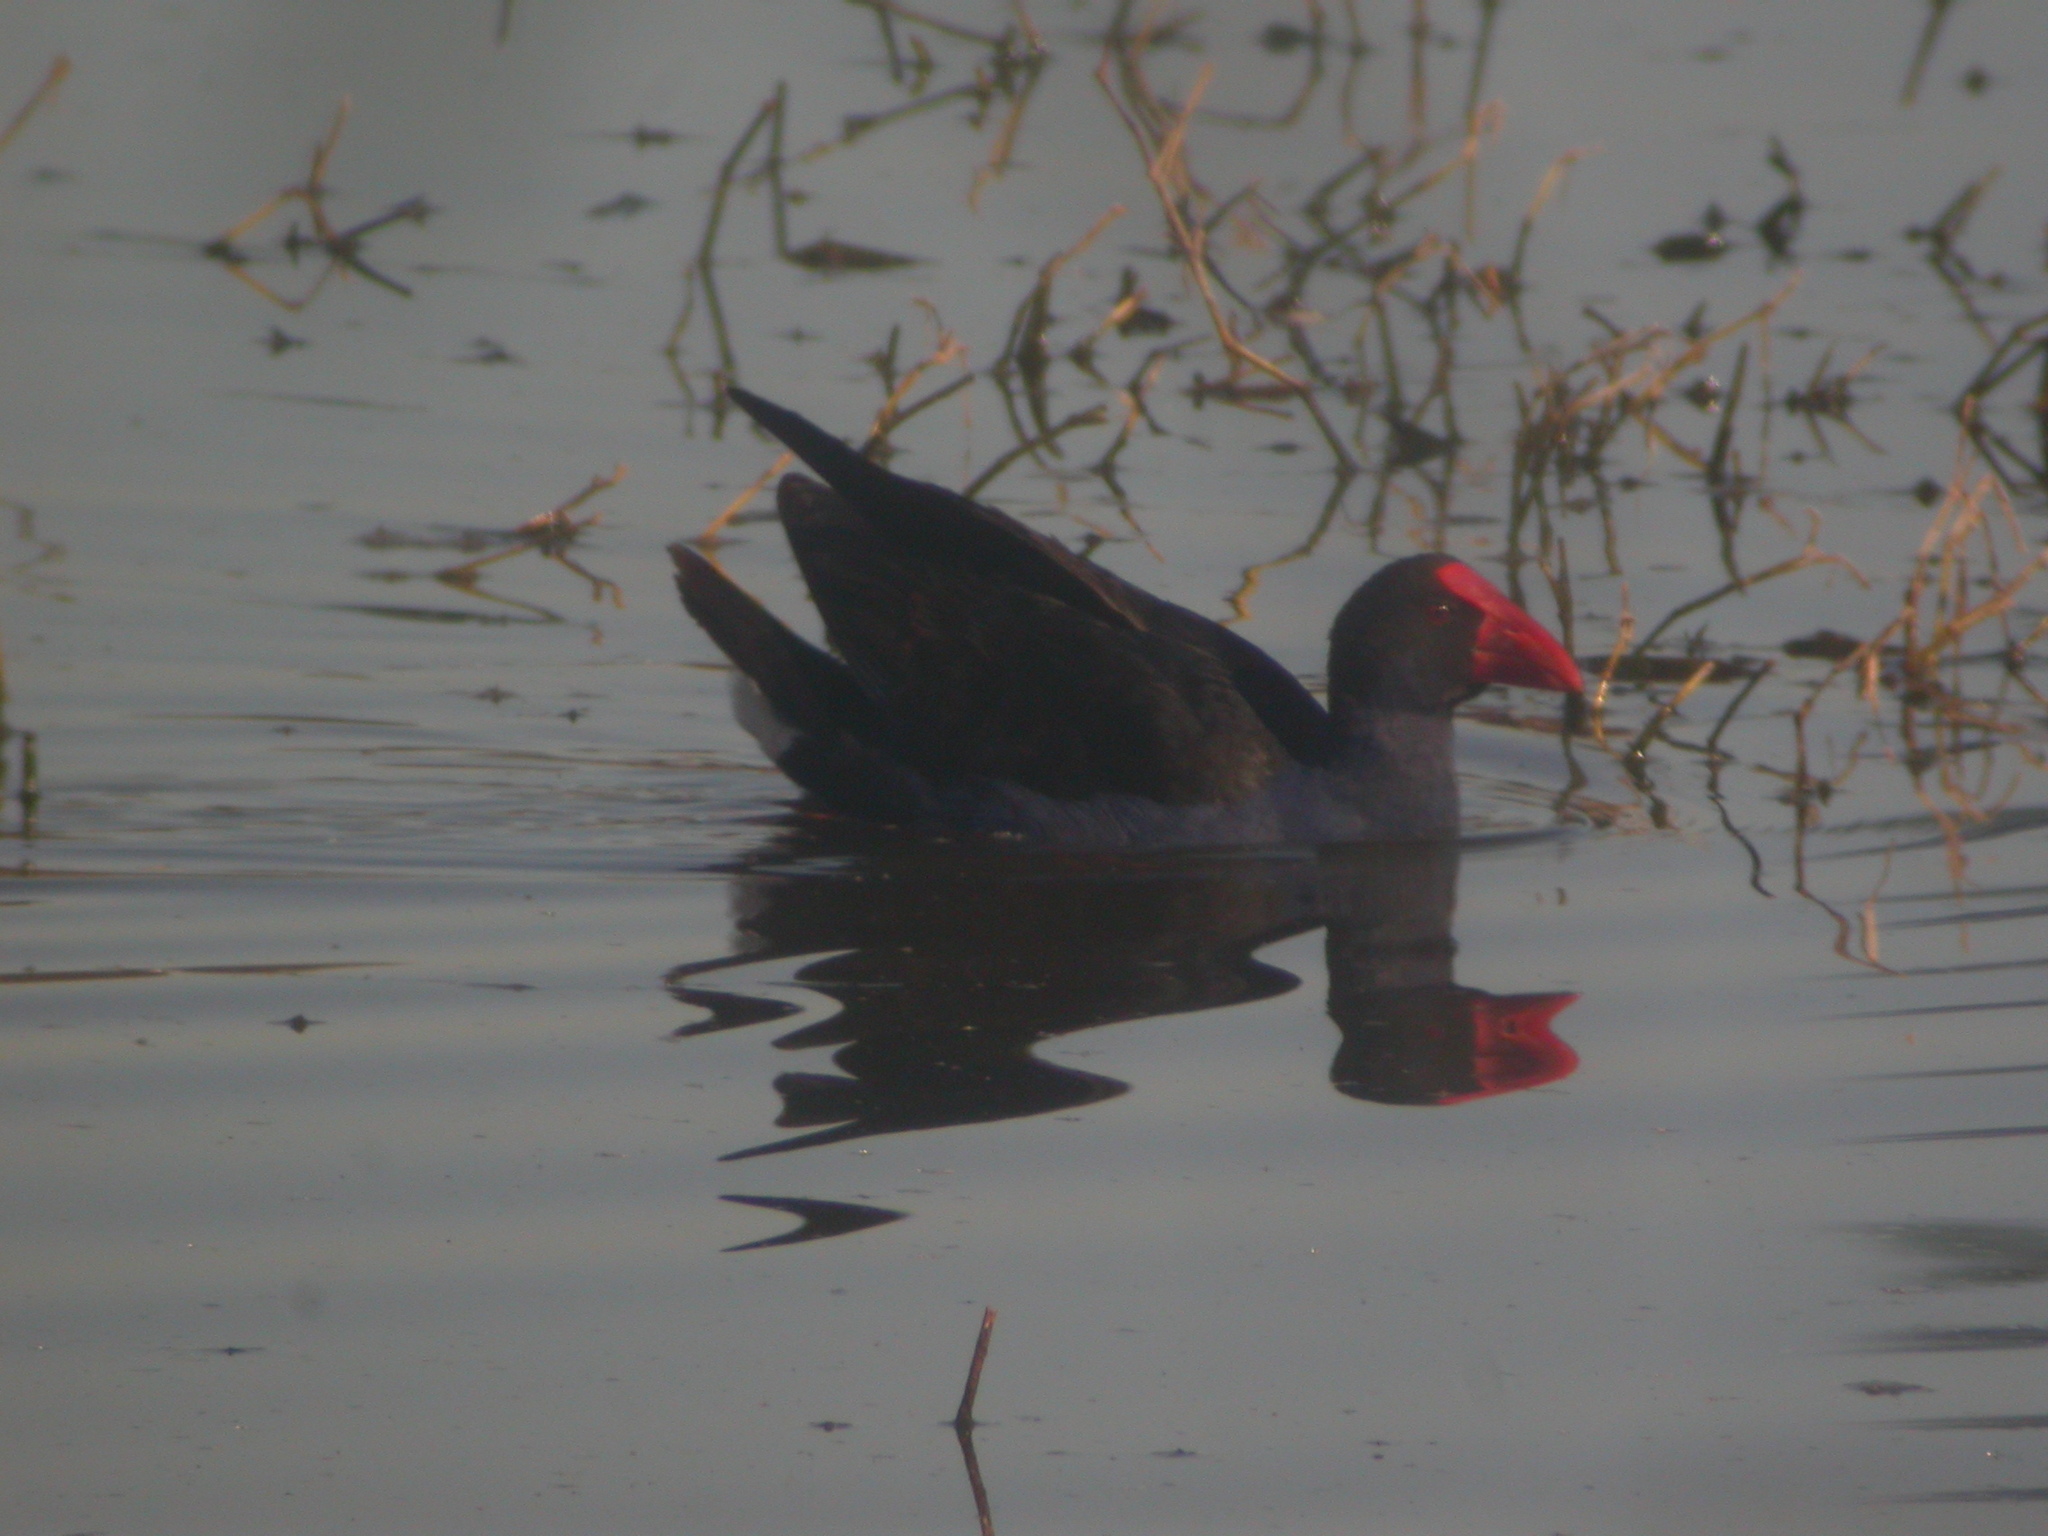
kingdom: Animalia
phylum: Chordata
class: Aves
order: Gruiformes
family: Rallidae
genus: Porphyrio
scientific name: Porphyrio melanotus
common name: Australasian swamphen
